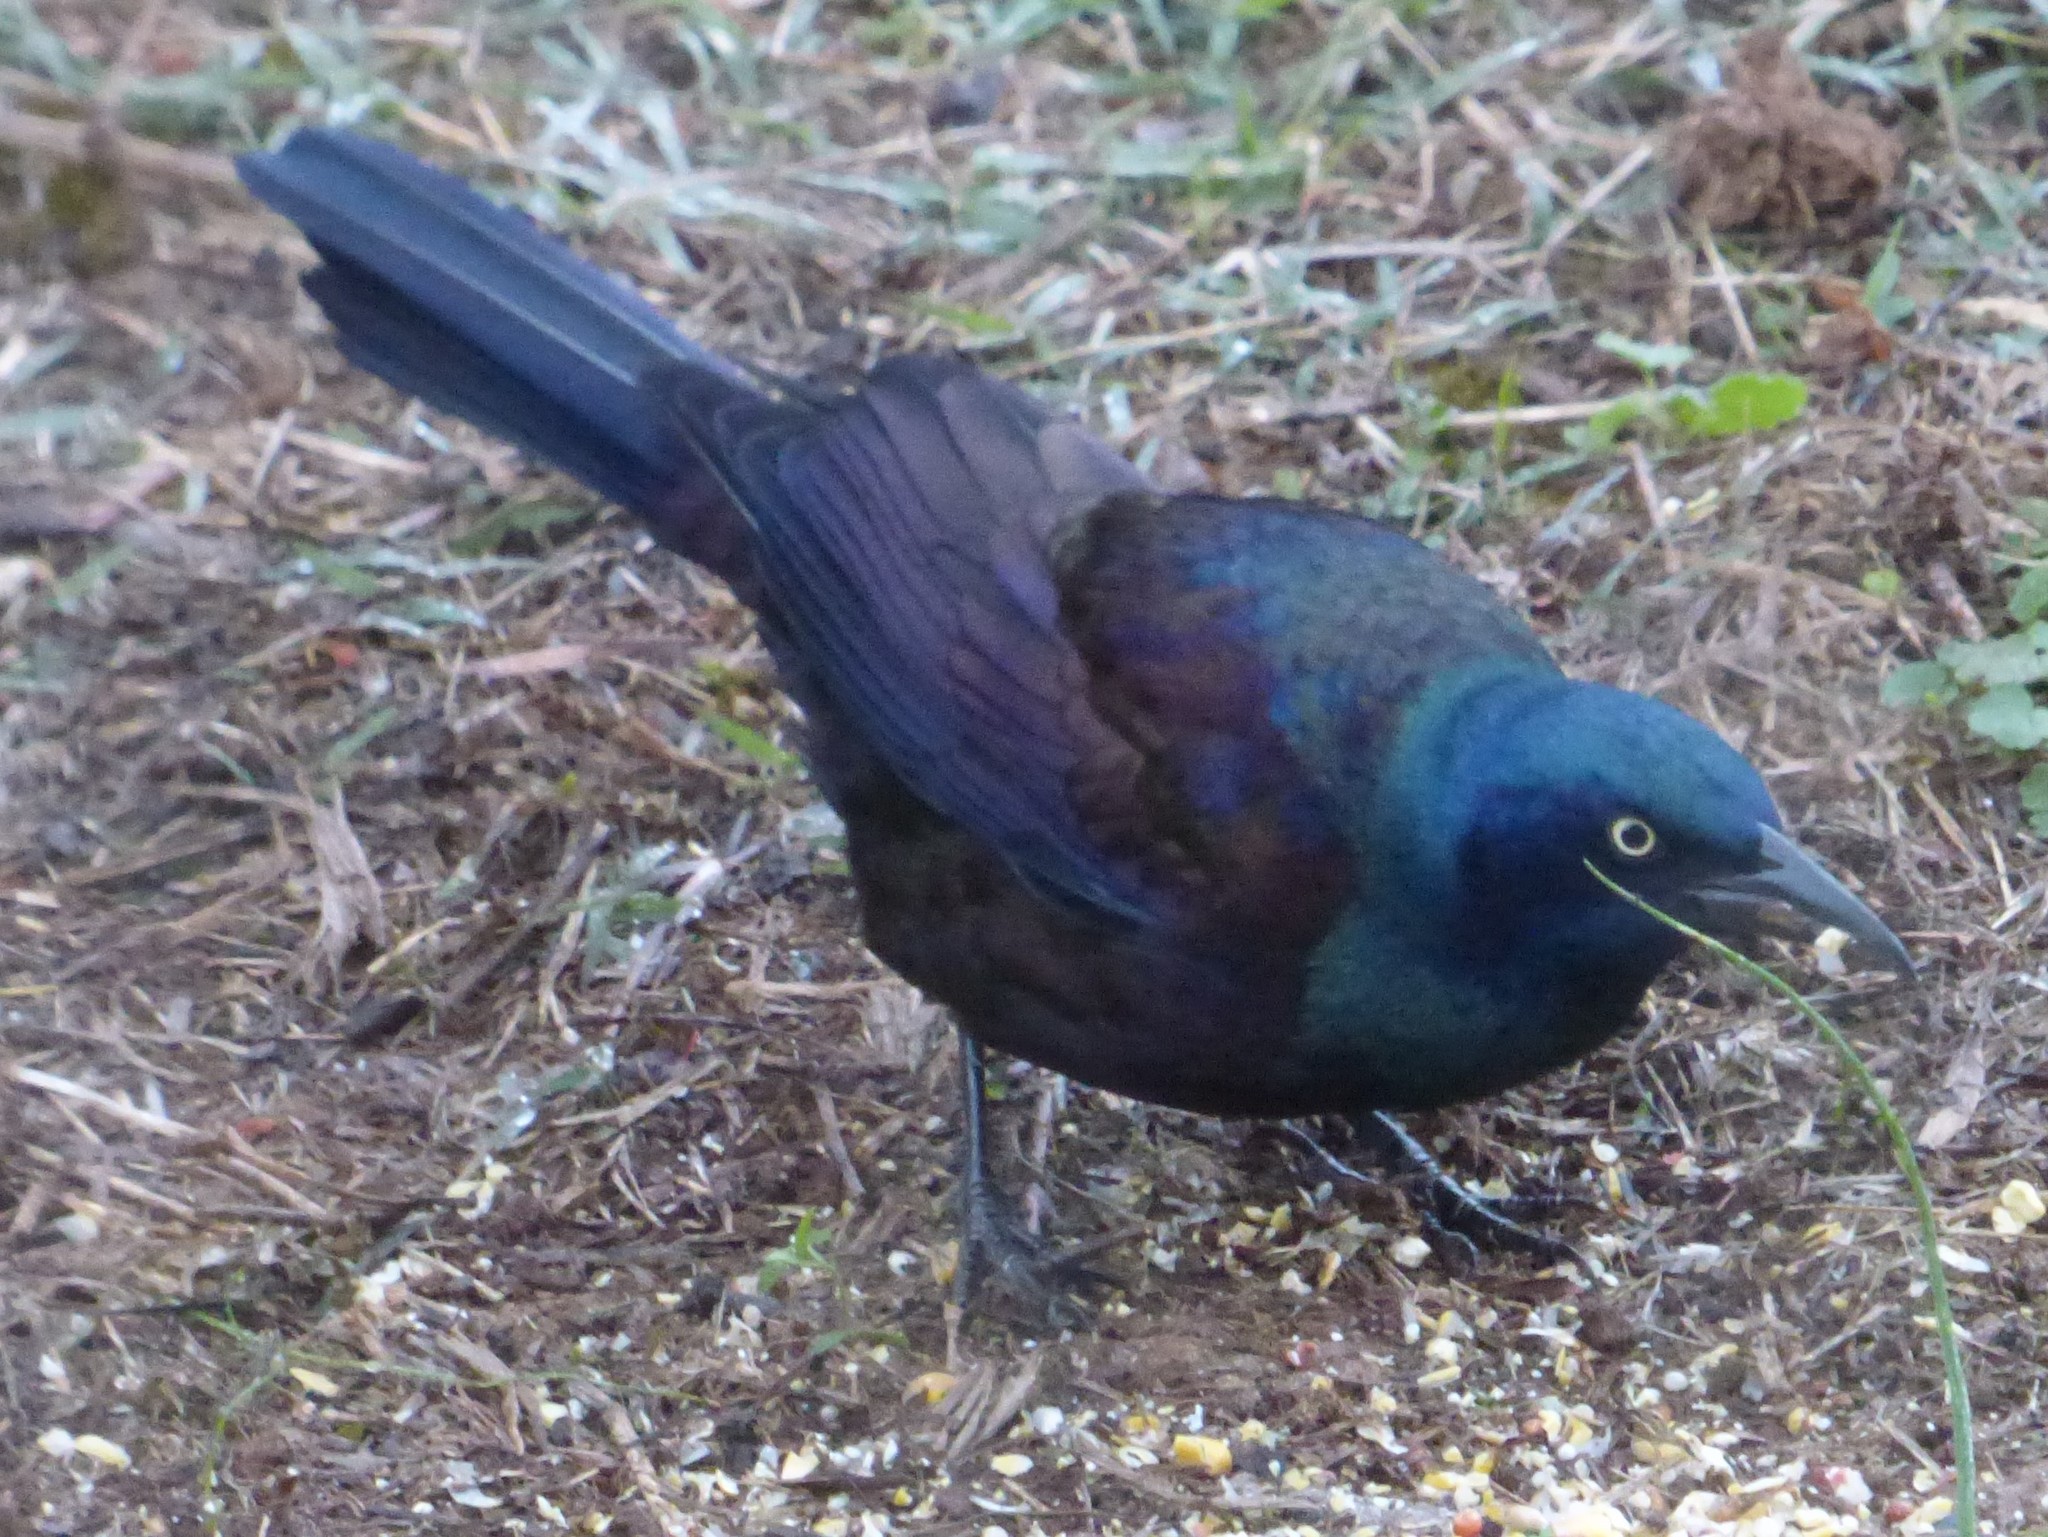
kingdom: Animalia
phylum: Chordata
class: Aves
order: Passeriformes
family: Icteridae
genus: Quiscalus
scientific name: Quiscalus quiscula
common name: Common grackle
